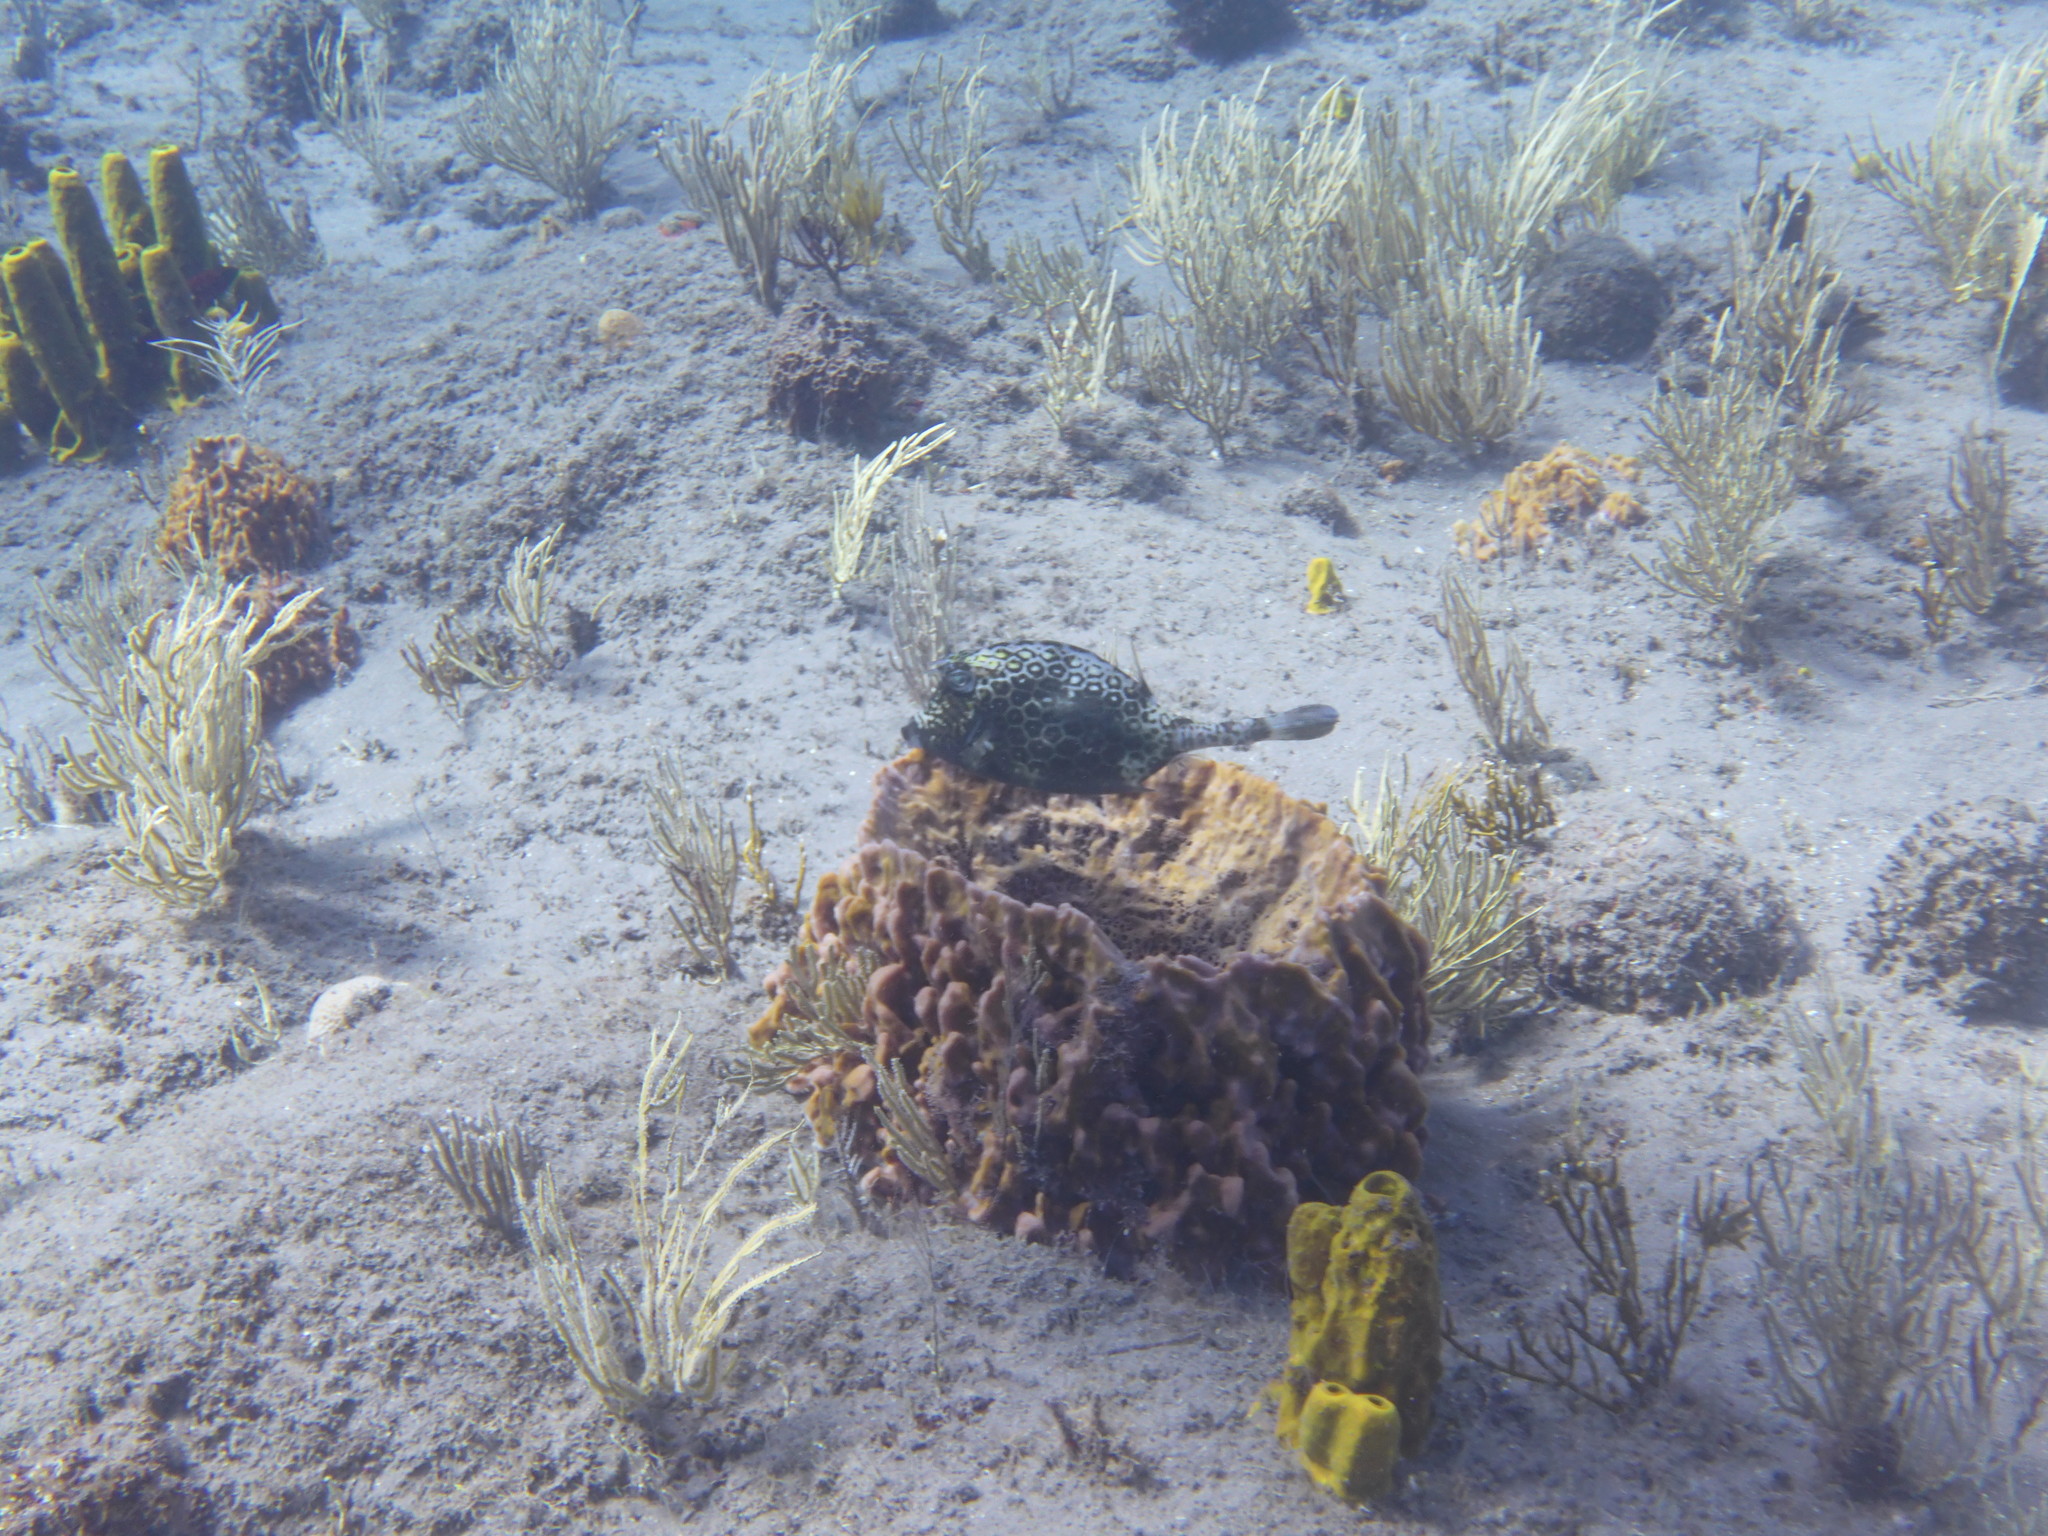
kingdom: Animalia
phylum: Chordata
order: Tetraodontiformes
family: Ostraciidae
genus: Acanthostracion
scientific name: Acanthostracion polygonius
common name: Honeycomb cowfish
